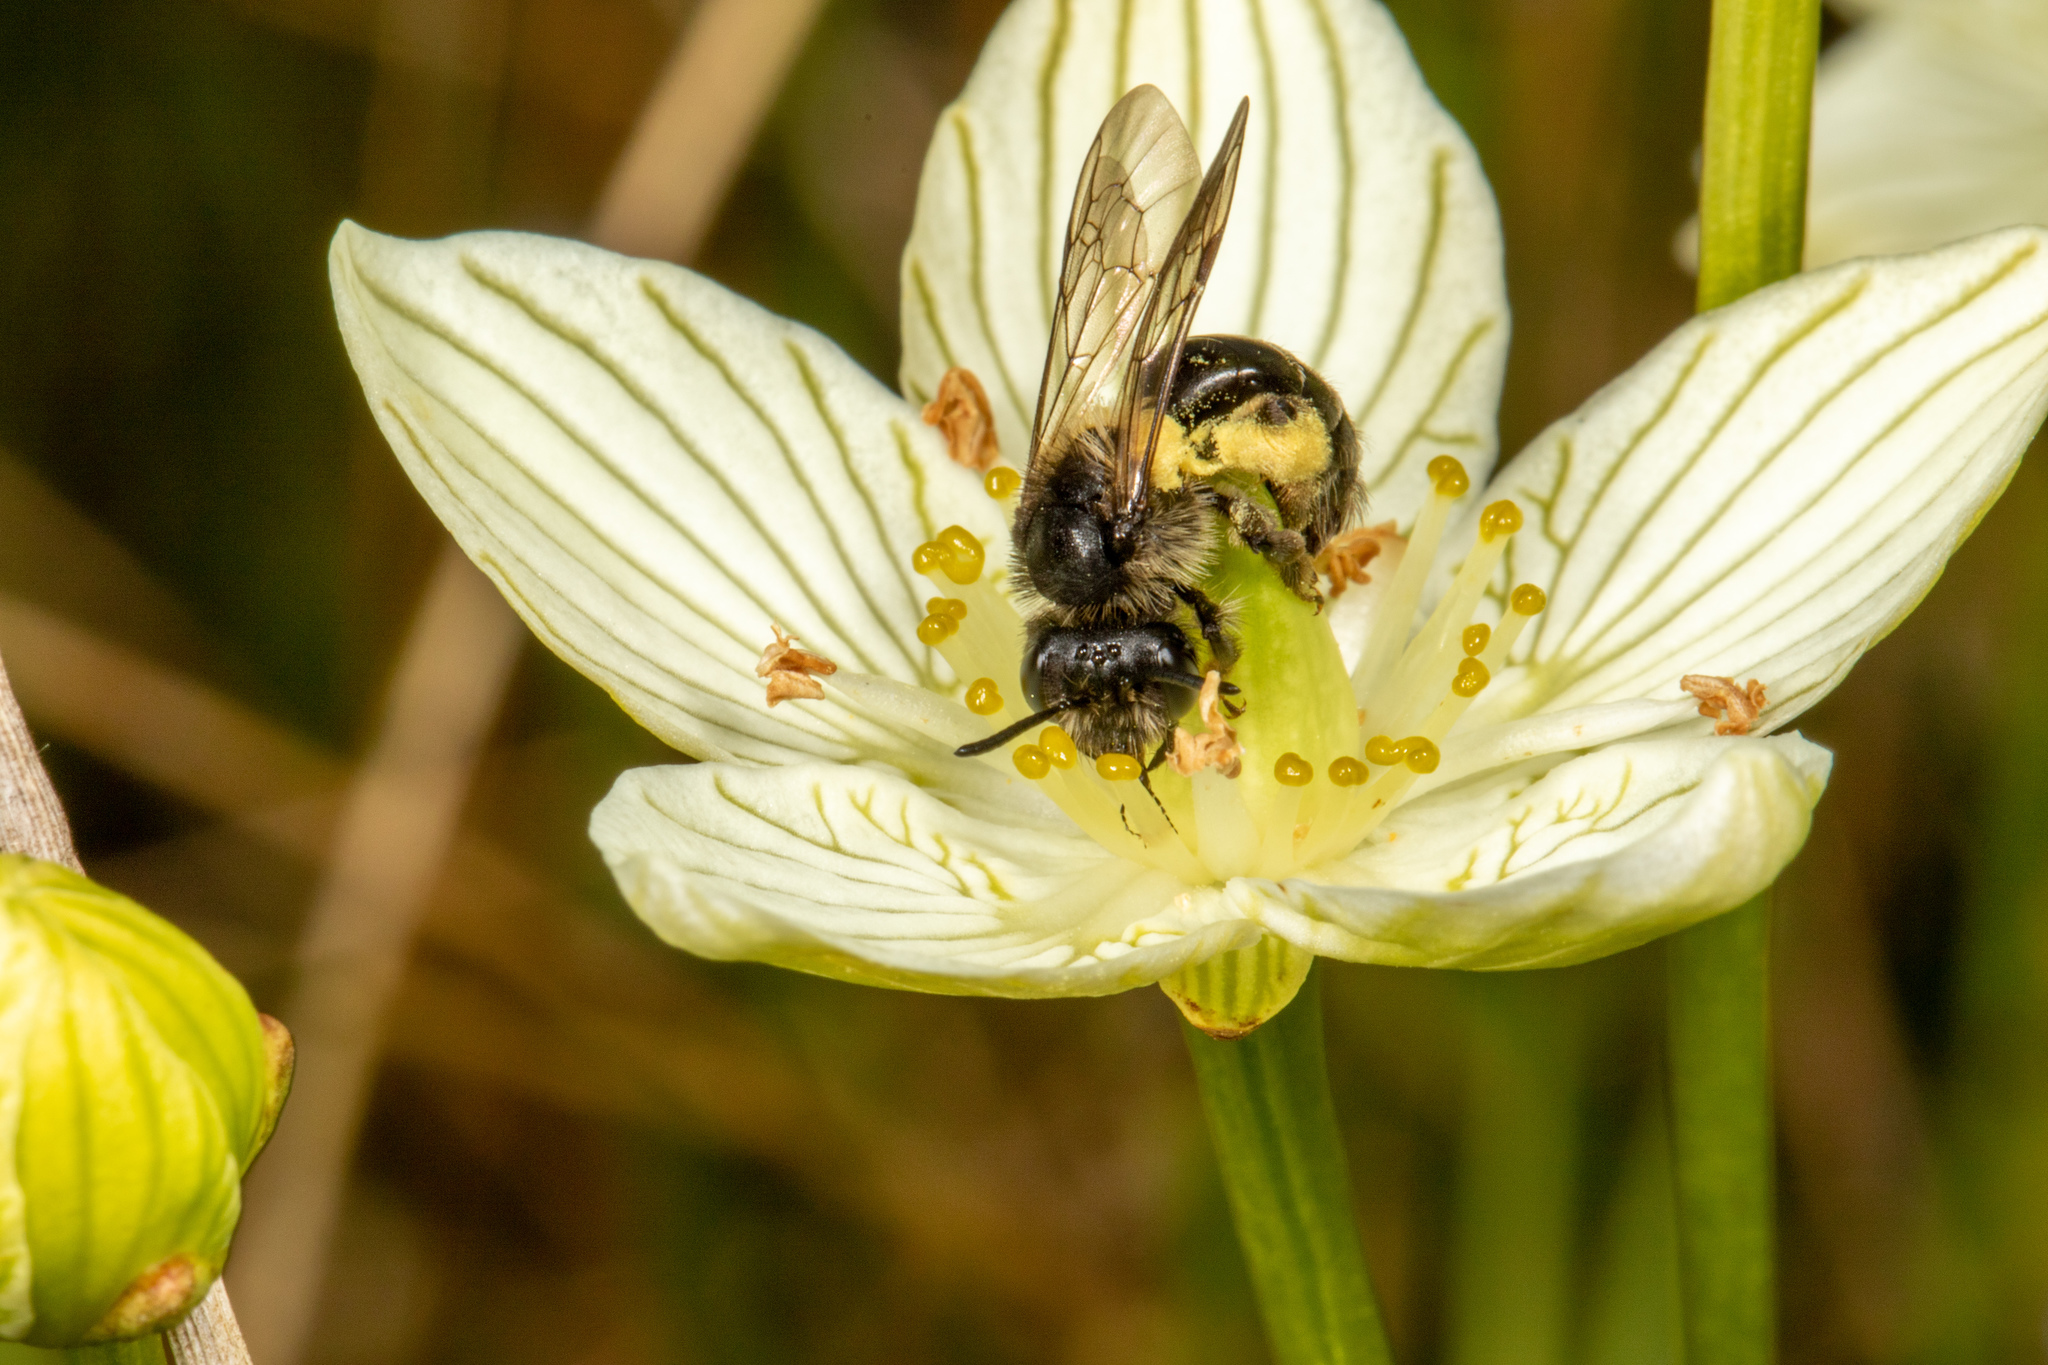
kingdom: Animalia
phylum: Arthropoda
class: Insecta
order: Hymenoptera
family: Andrenidae
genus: Andrena
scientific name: Andrena parnassiae
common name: Parnassia miner
